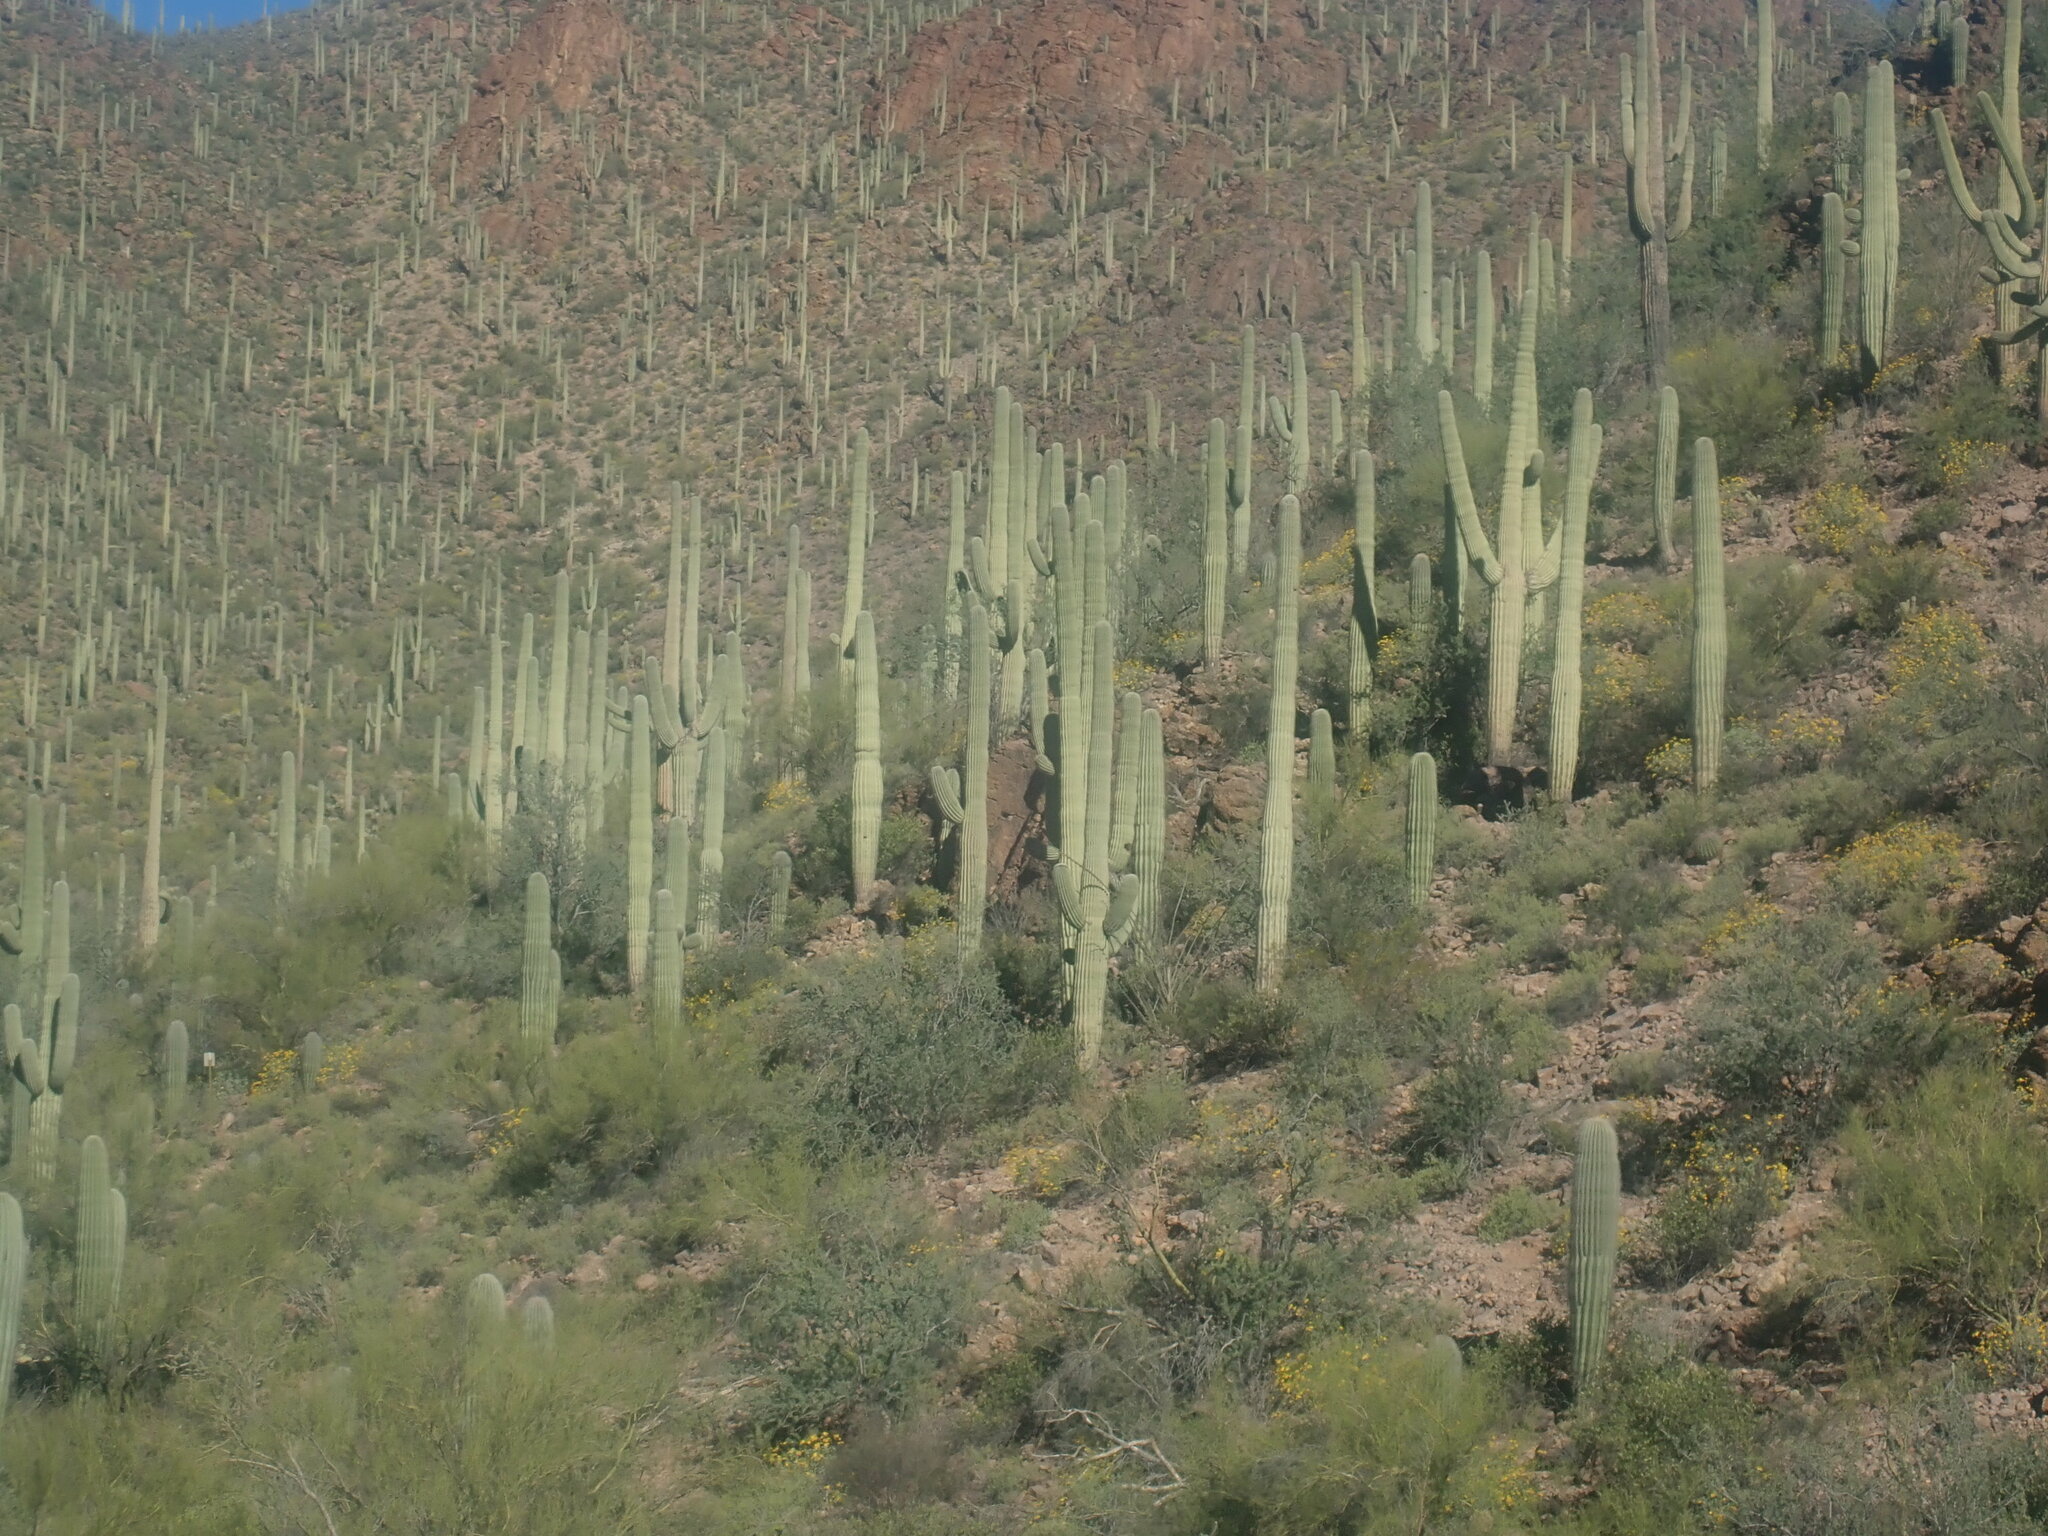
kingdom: Plantae
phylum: Tracheophyta
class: Magnoliopsida
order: Caryophyllales
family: Cactaceae
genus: Carnegiea
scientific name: Carnegiea gigantea
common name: Saguaro
